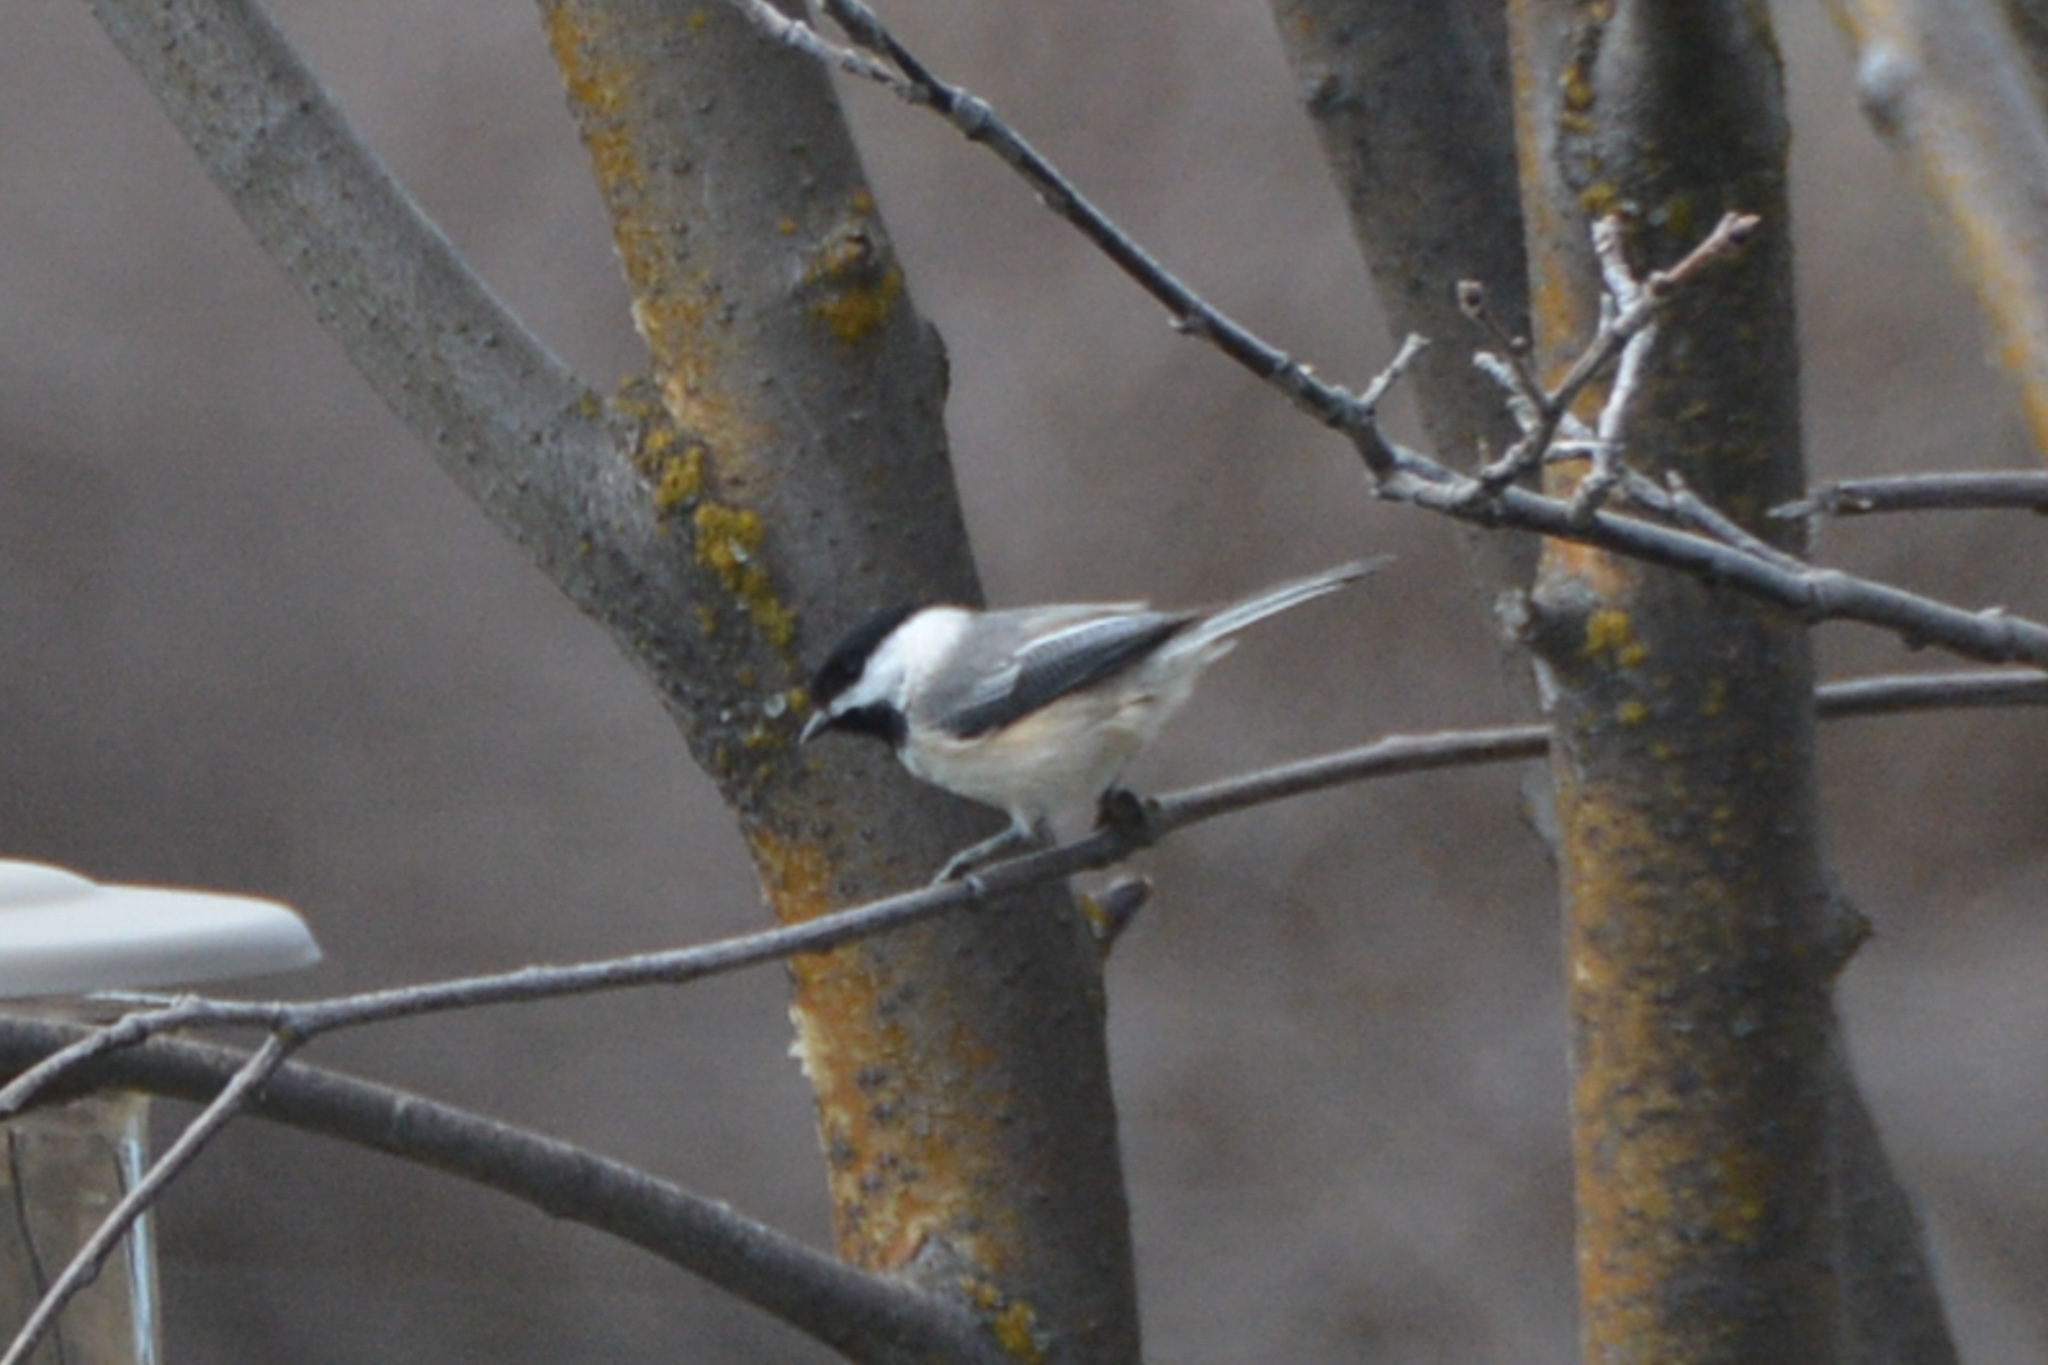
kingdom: Animalia
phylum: Chordata
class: Aves
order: Passeriformes
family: Paridae
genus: Poecile
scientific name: Poecile atricapillus
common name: Black-capped chickadee
